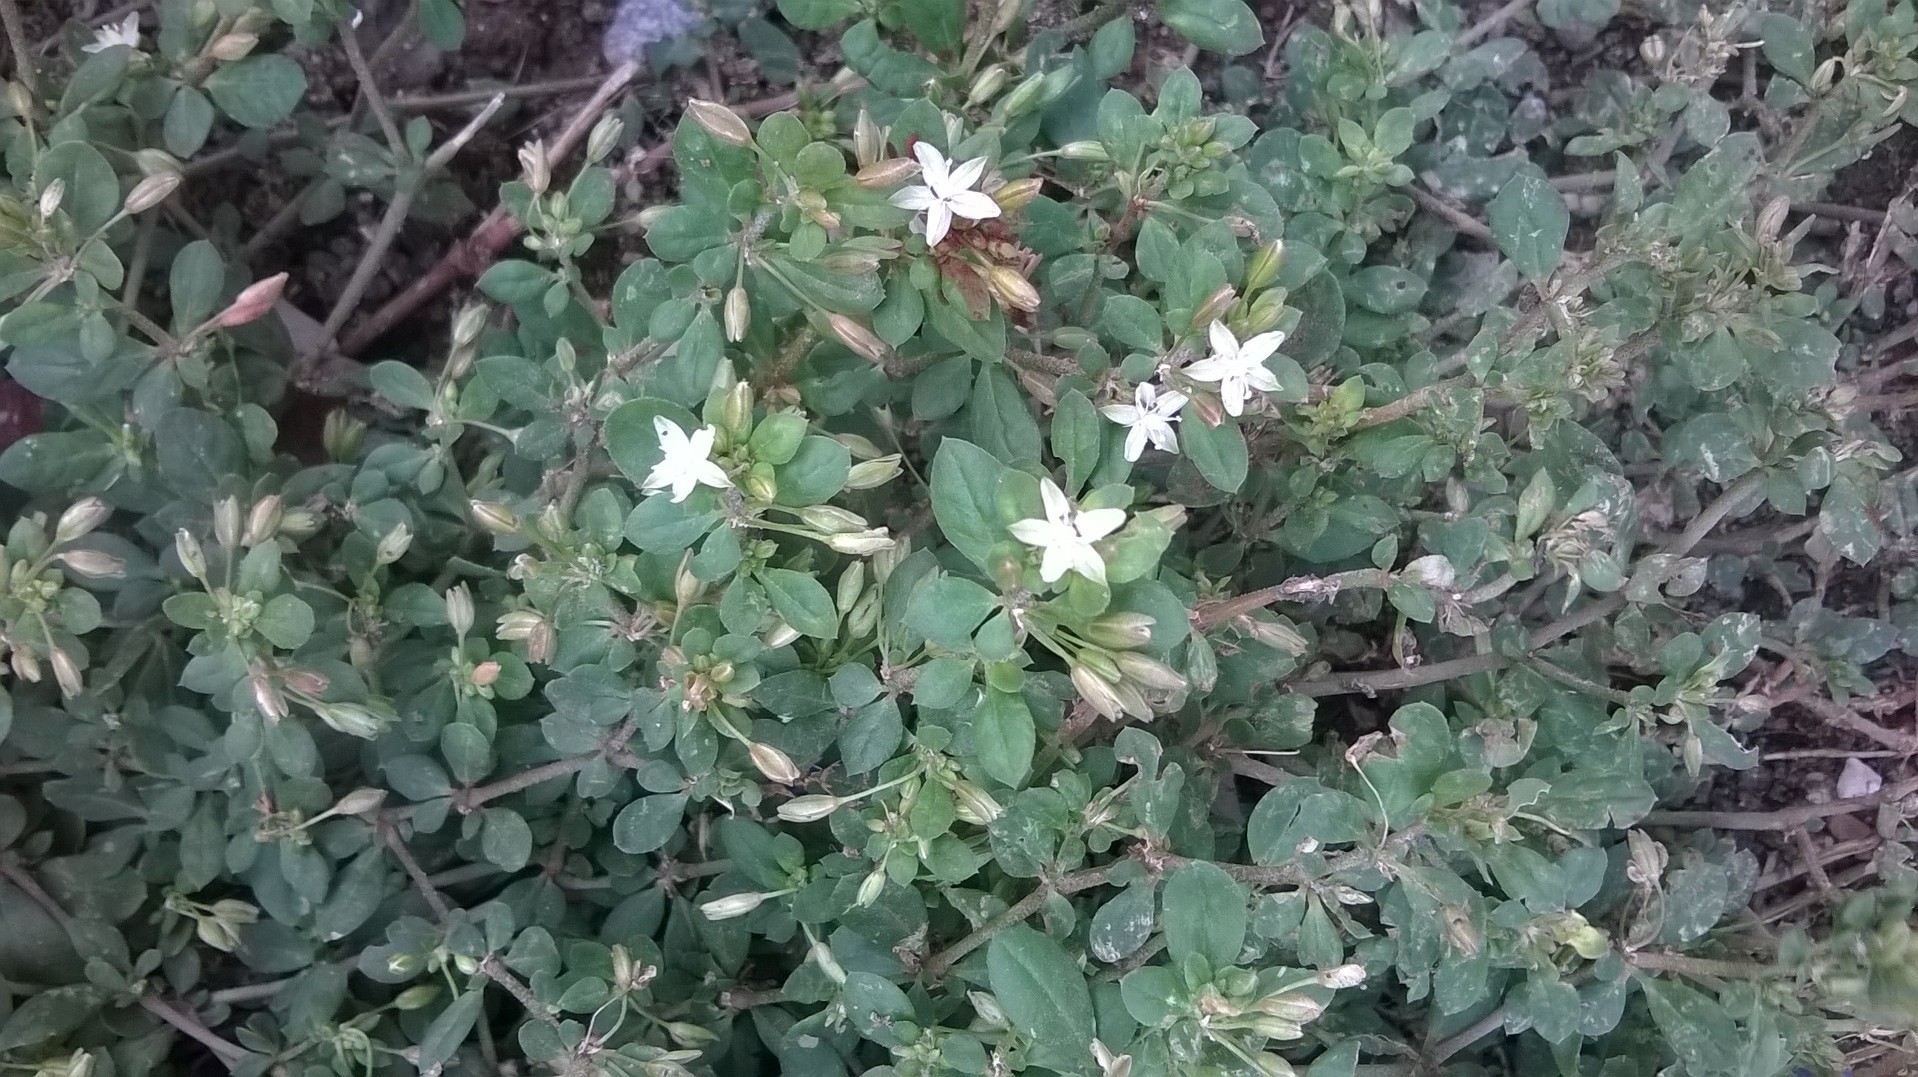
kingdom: Plantae
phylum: Tracheophyta
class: Magnoliopsida
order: Caryophyllales
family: Molluginaceae
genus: Glinus
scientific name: Glinus oppositifolius
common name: Slender carpetweed
